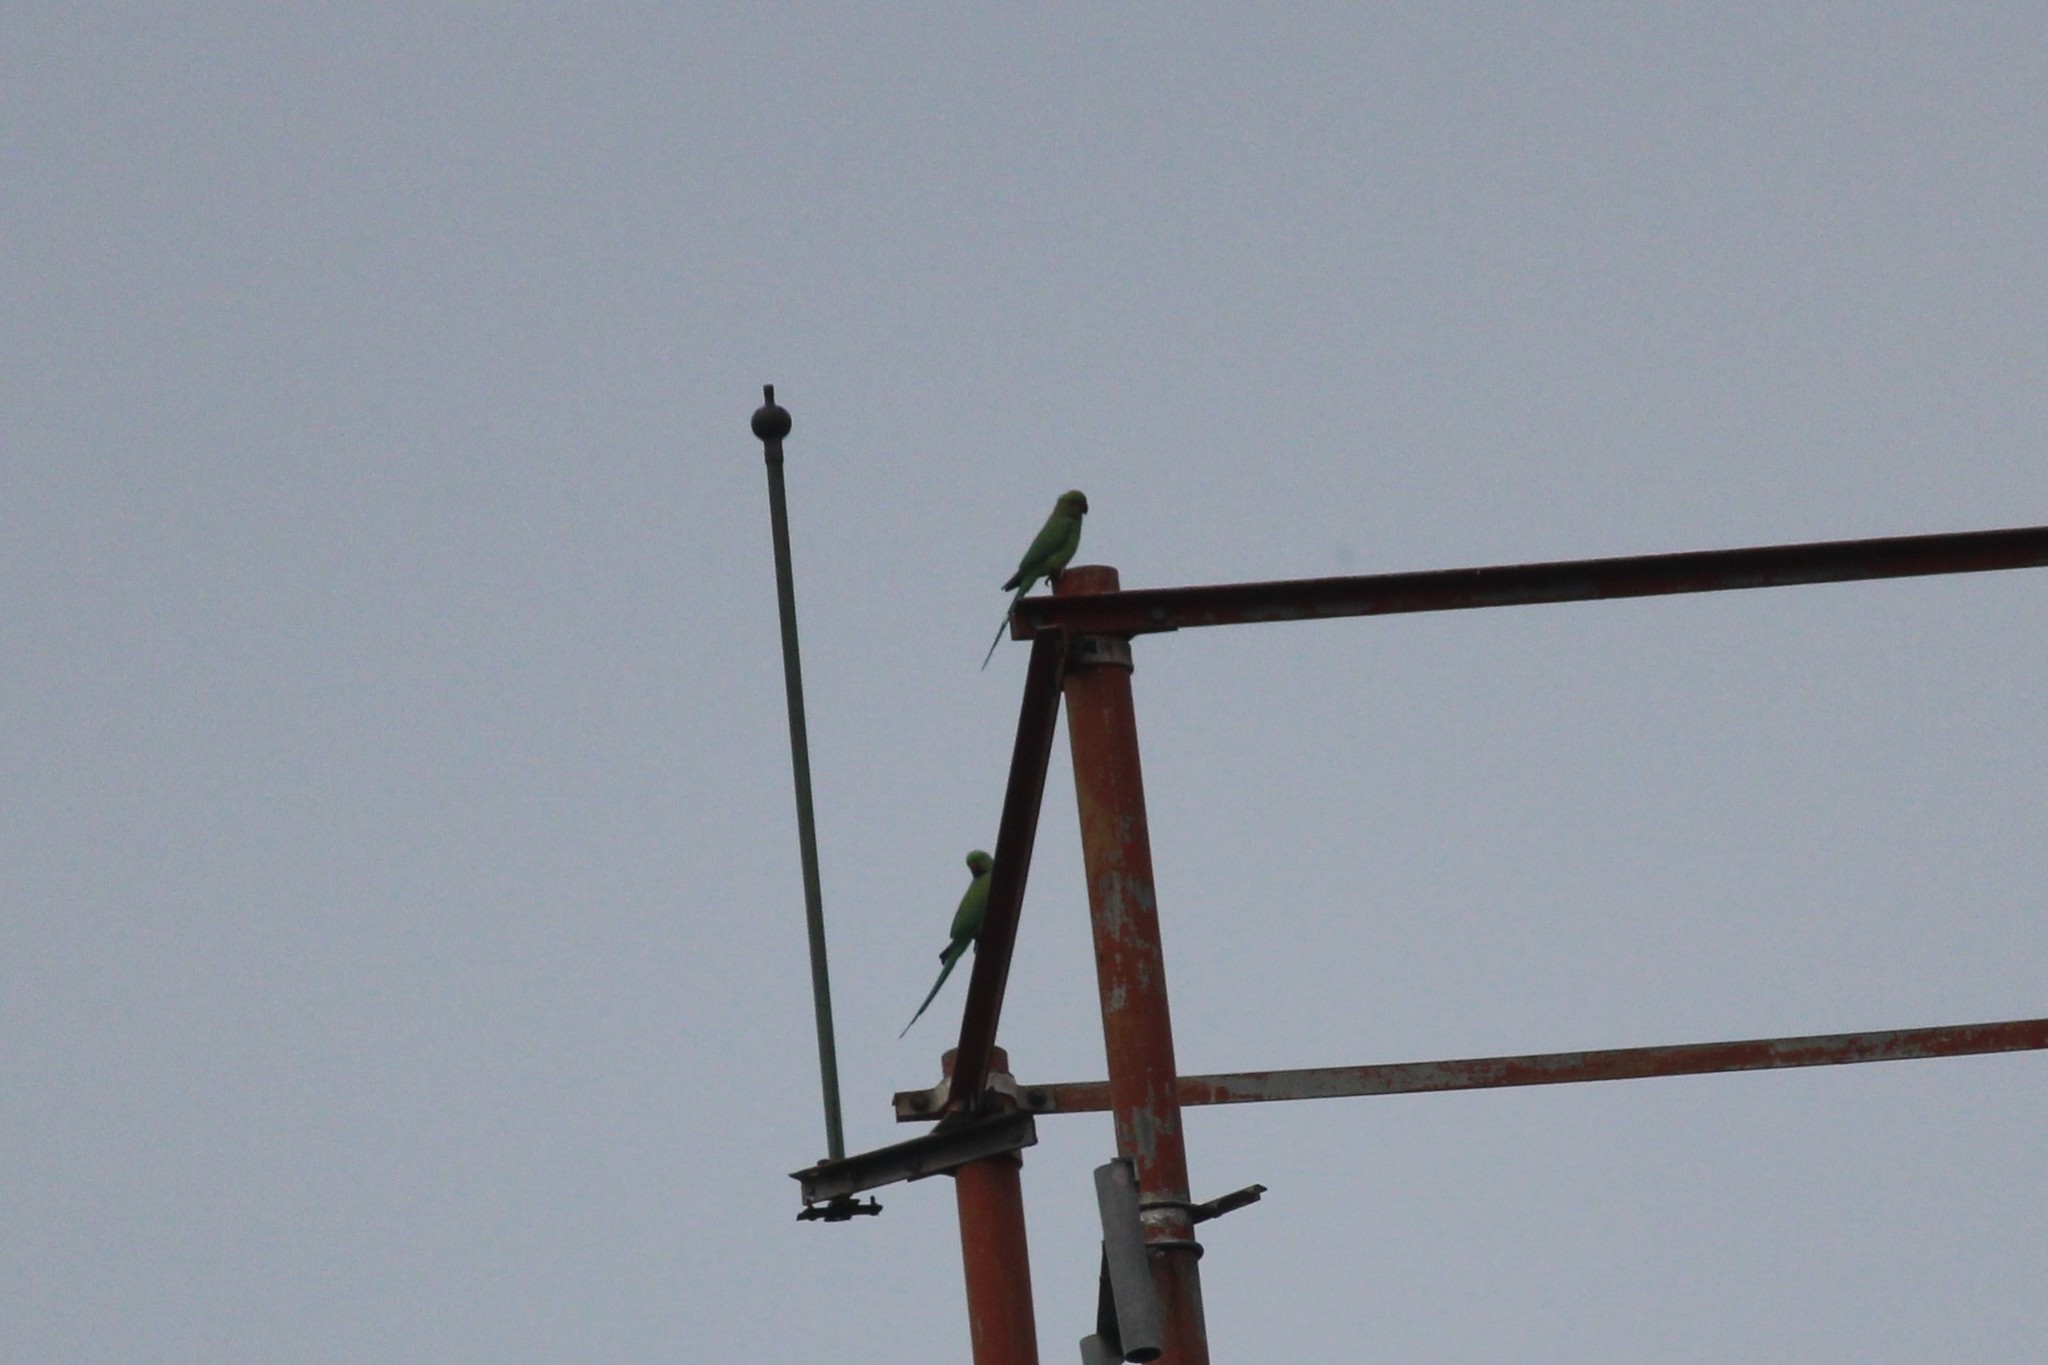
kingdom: Animalia
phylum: Chordata
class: Aves
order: Psittaciformes
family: Psittacidae
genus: Psittacula
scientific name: Psittacula krameri
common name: Rose-ringed parakeet
